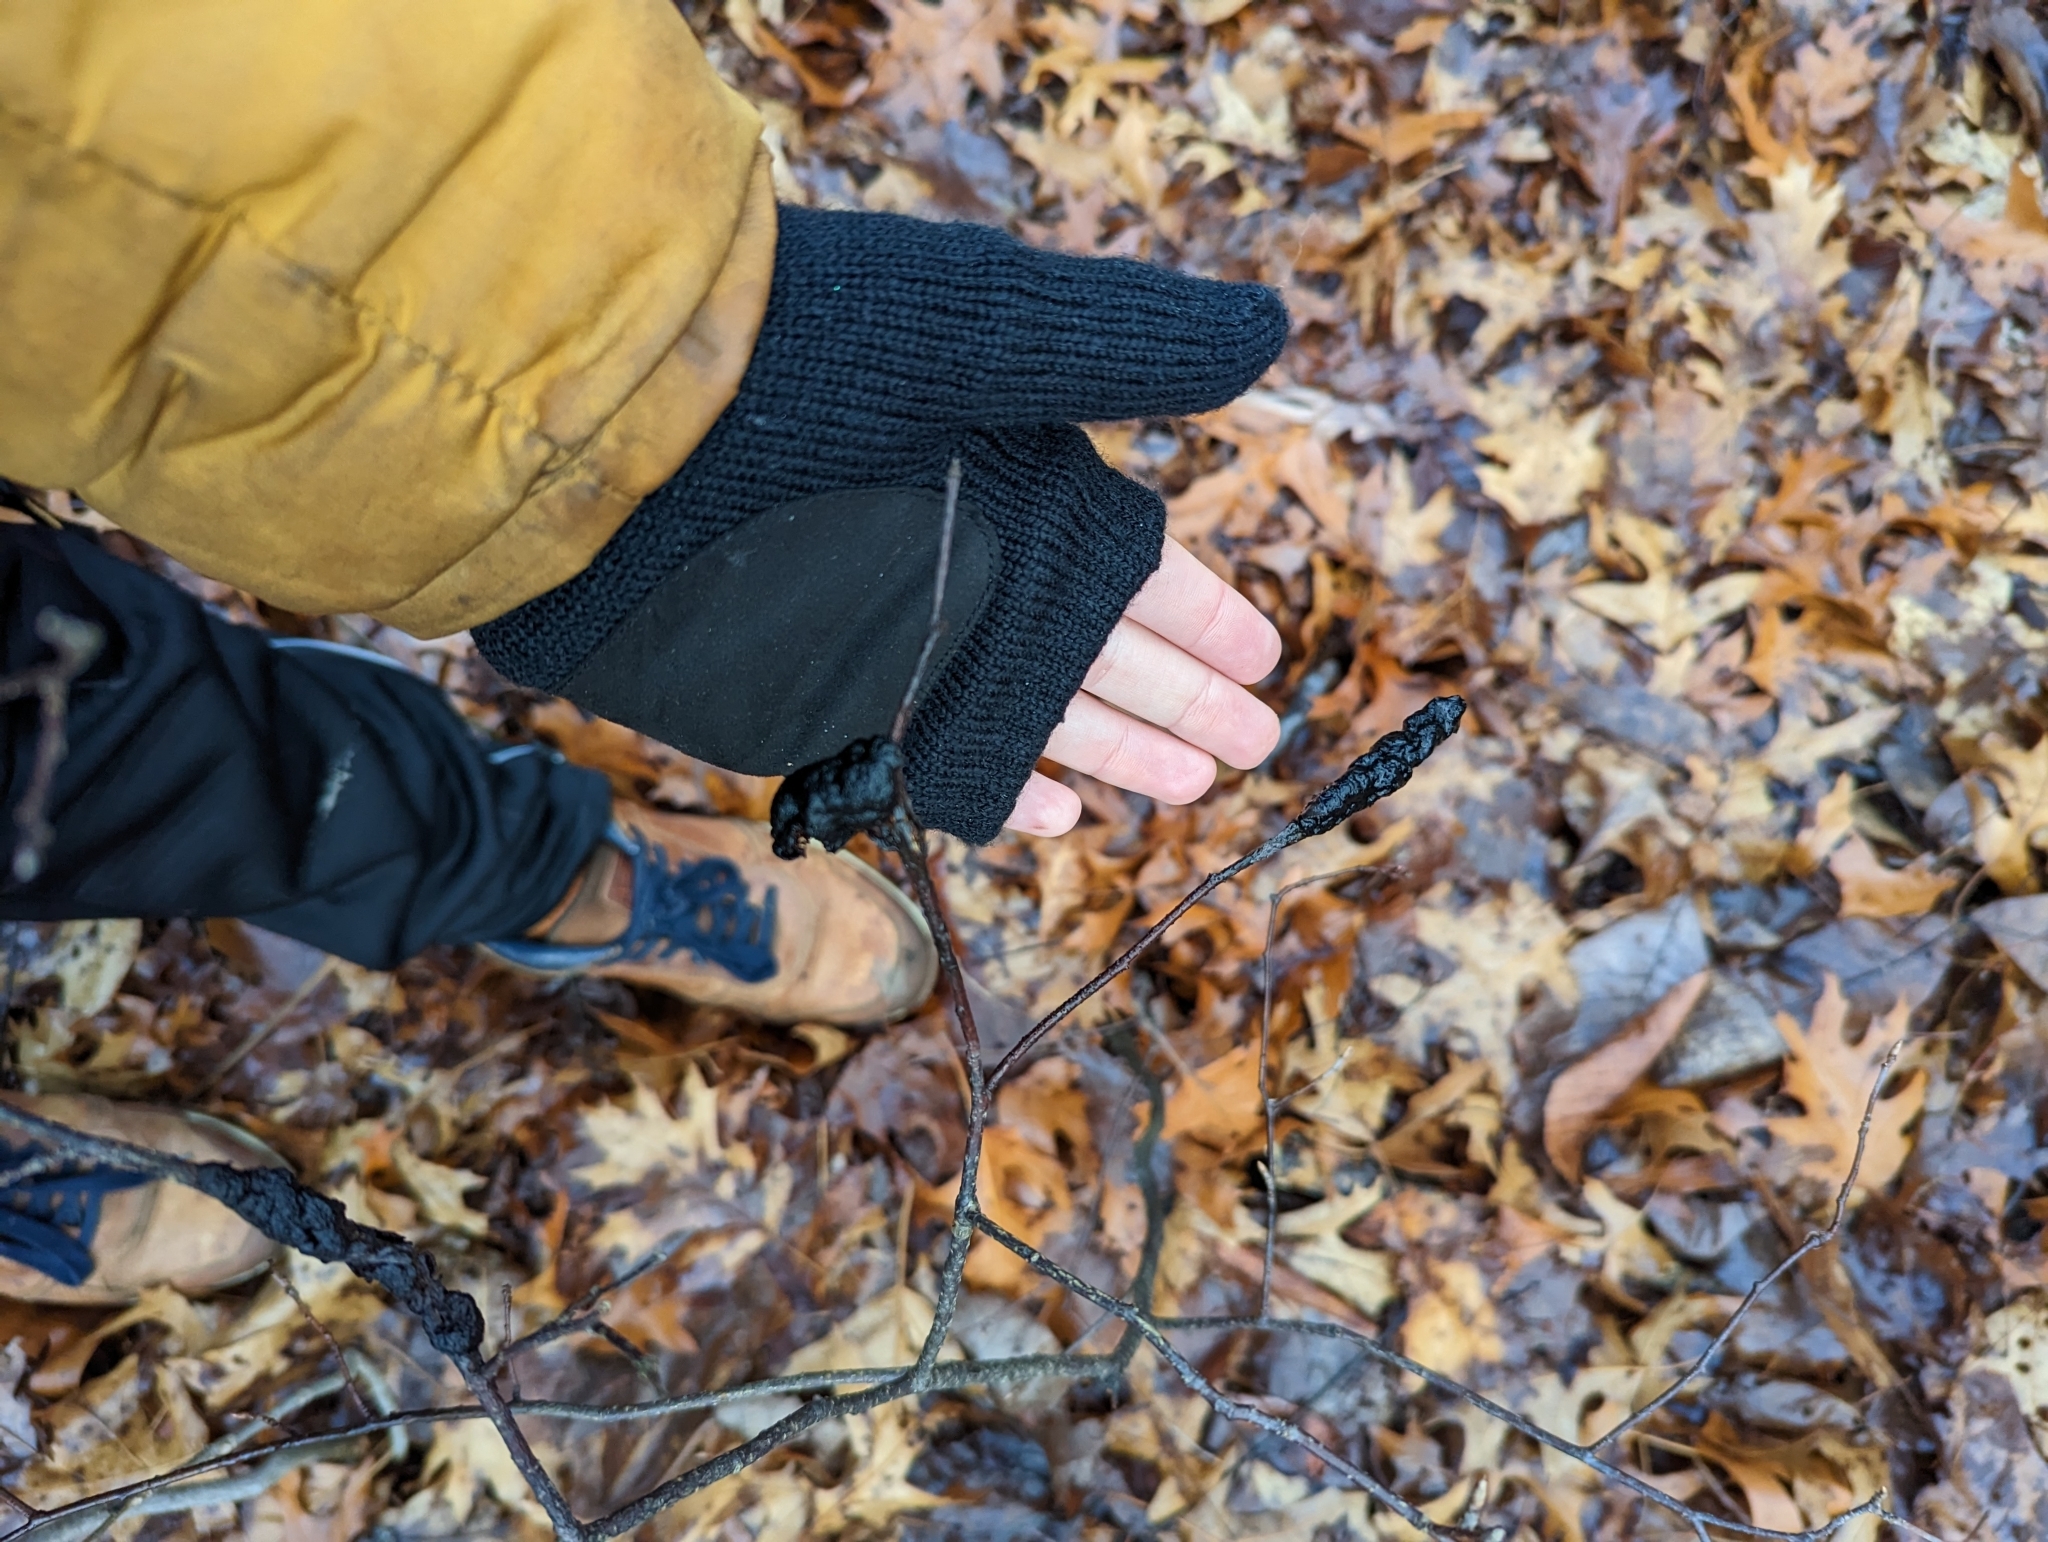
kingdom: Fungi
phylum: Ascomycota
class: Dothideomycetes
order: Venturiales
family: Venturiaceae
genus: Apiosporina
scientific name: Apiosporina morbosa
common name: Black knot
